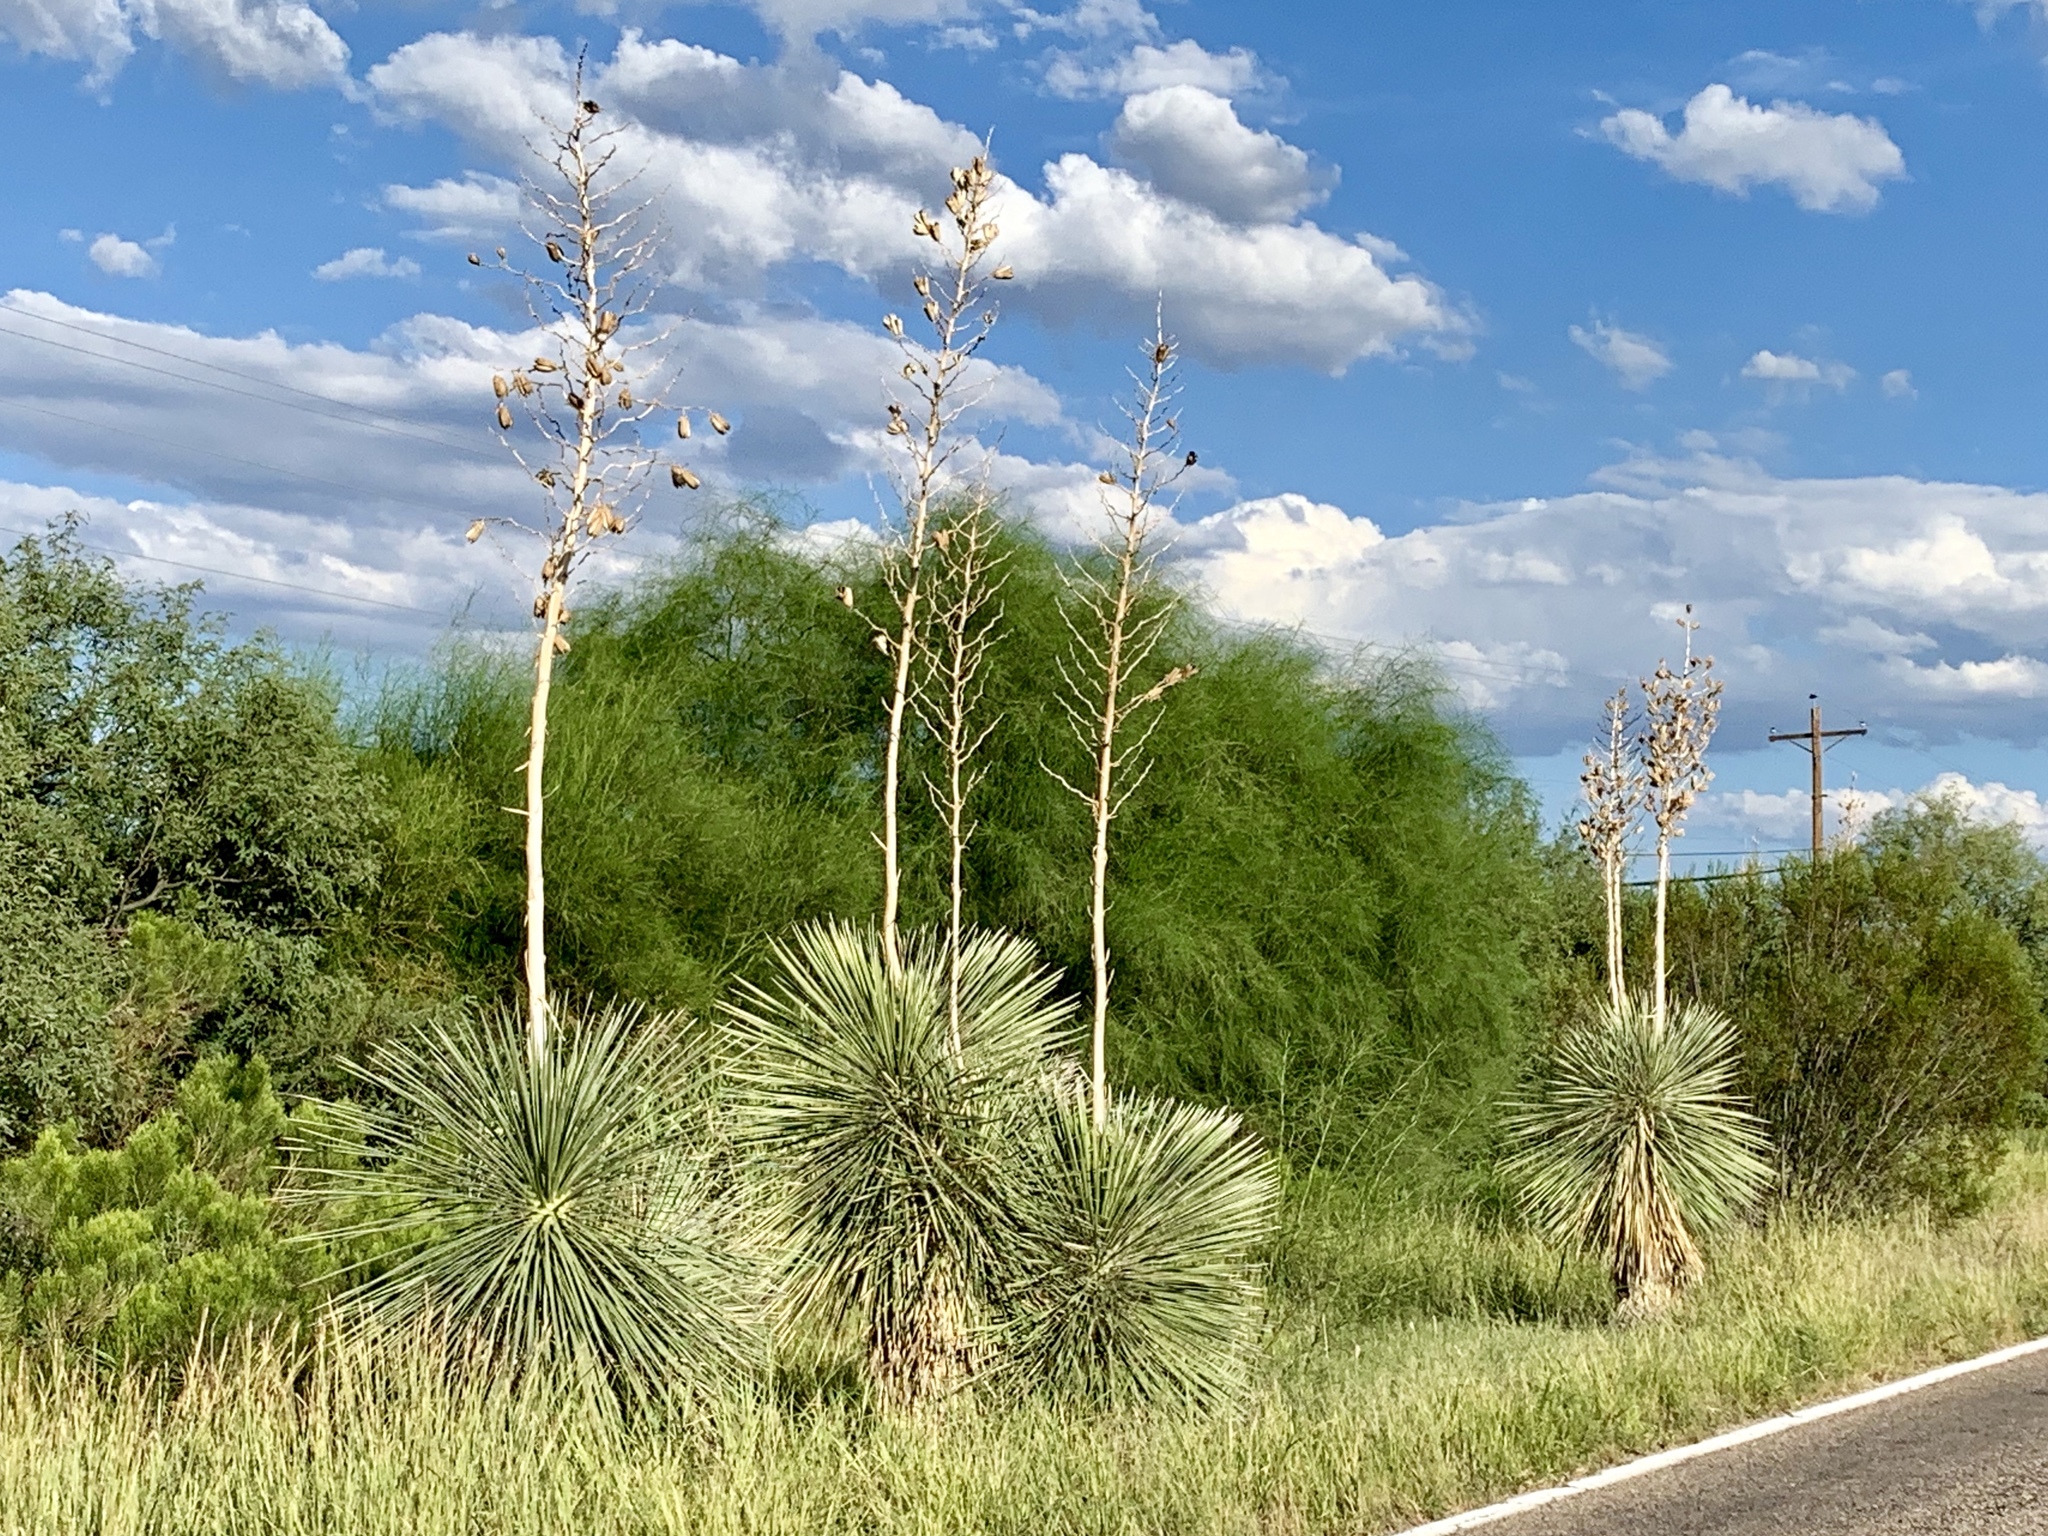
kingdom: Plantae
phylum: Tracheophyta
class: Liliopsida
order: Asparagales
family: Asparagaceae
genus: Yucca
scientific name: Yucca elata
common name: Palmella
